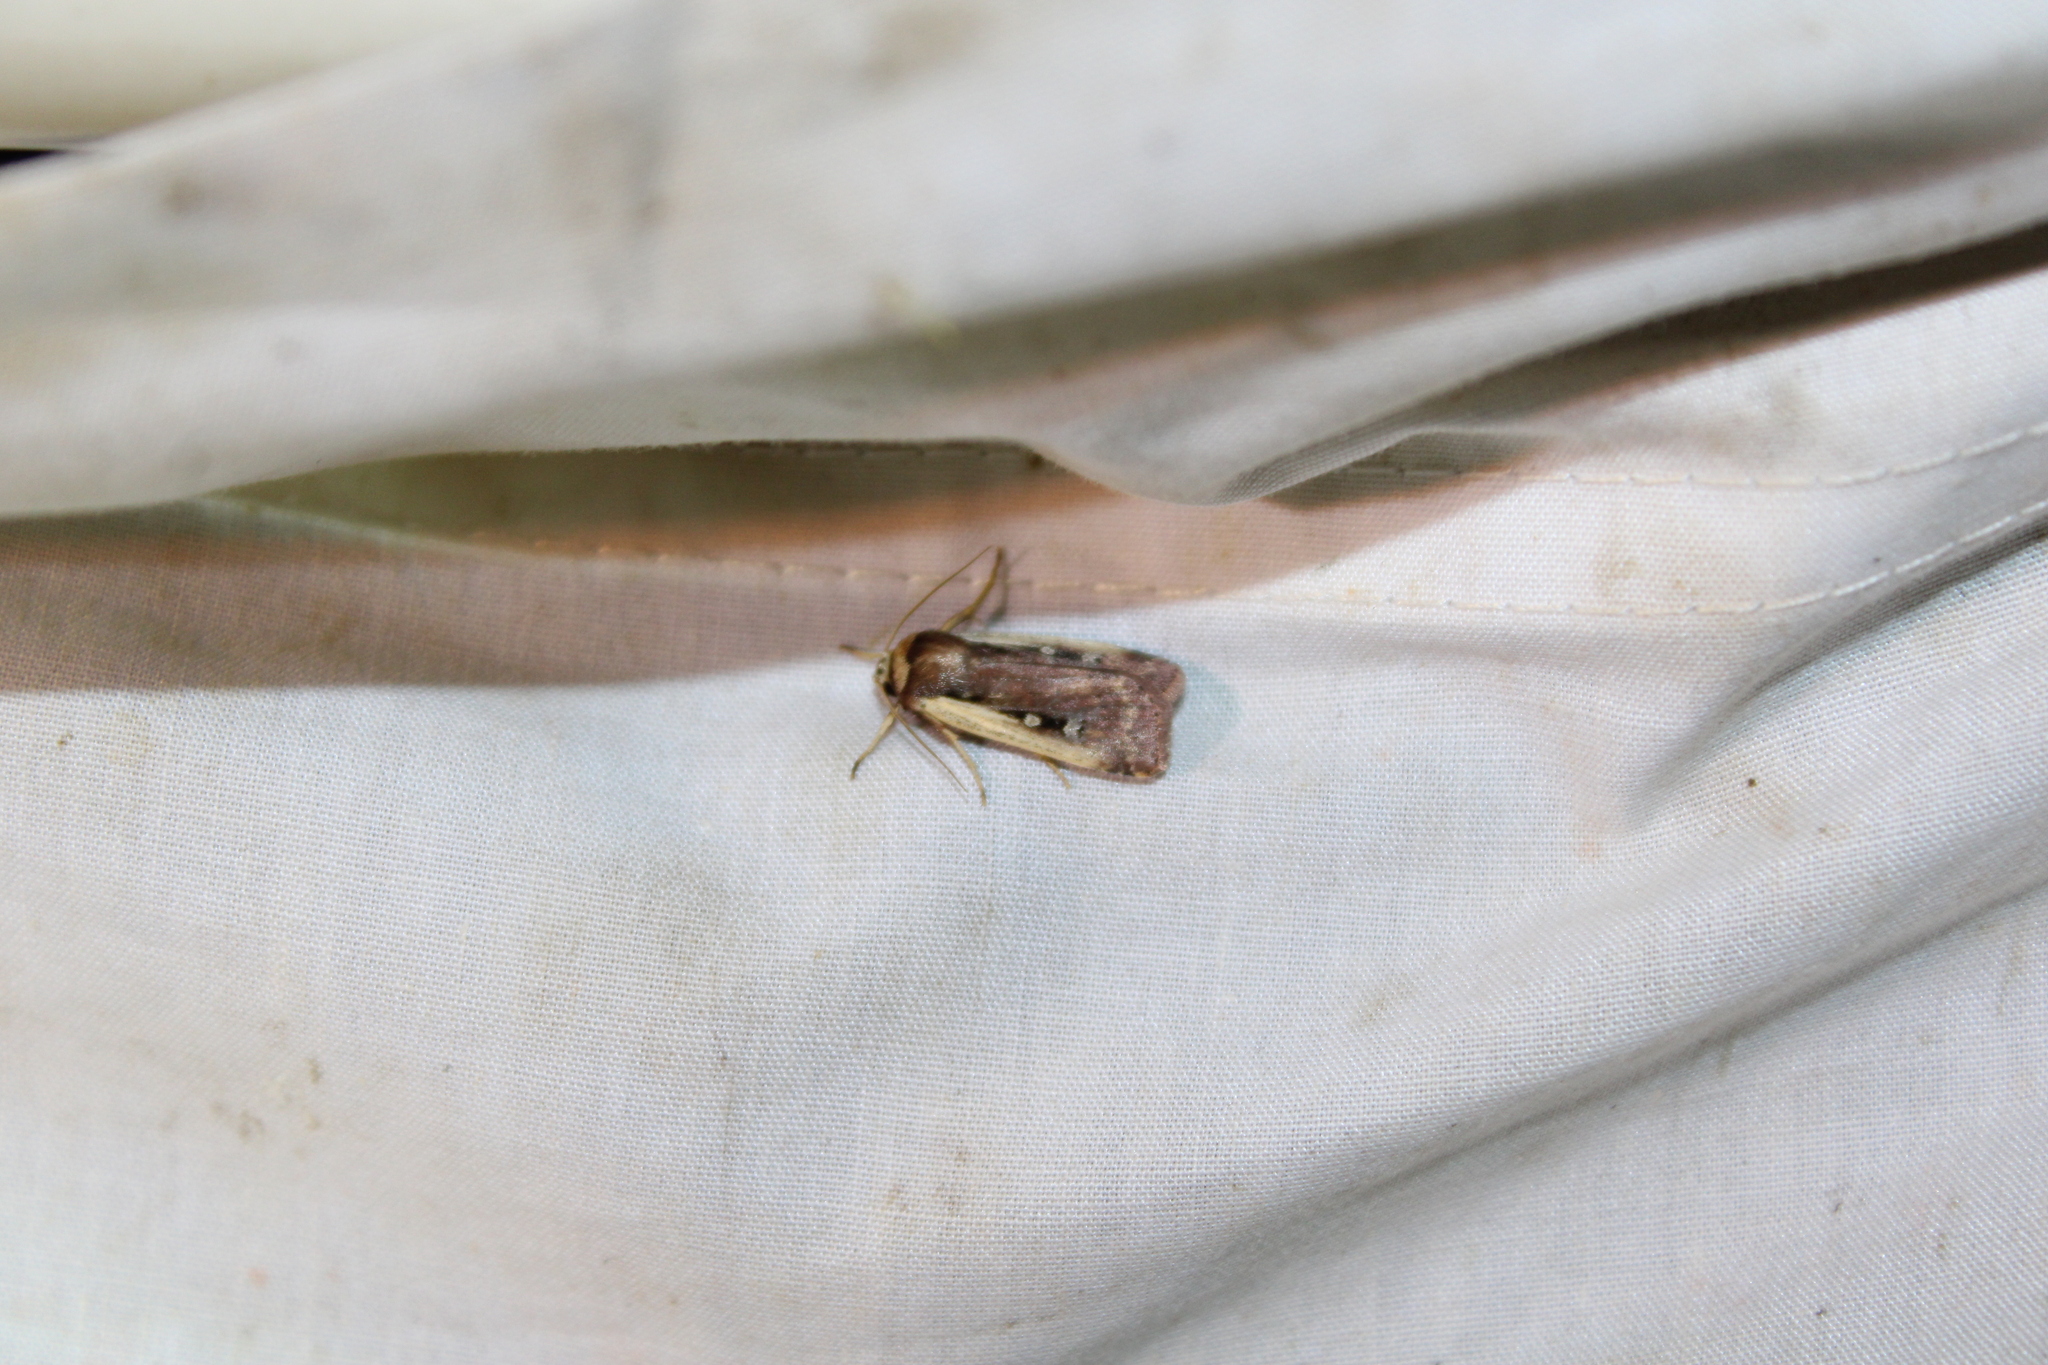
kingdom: Animalia
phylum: Arthropoda
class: Insecta
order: Lepidoptera
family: Noctuidae
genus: Ochropleura
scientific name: Ochropleura implecta
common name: Flame-shouldered dart
